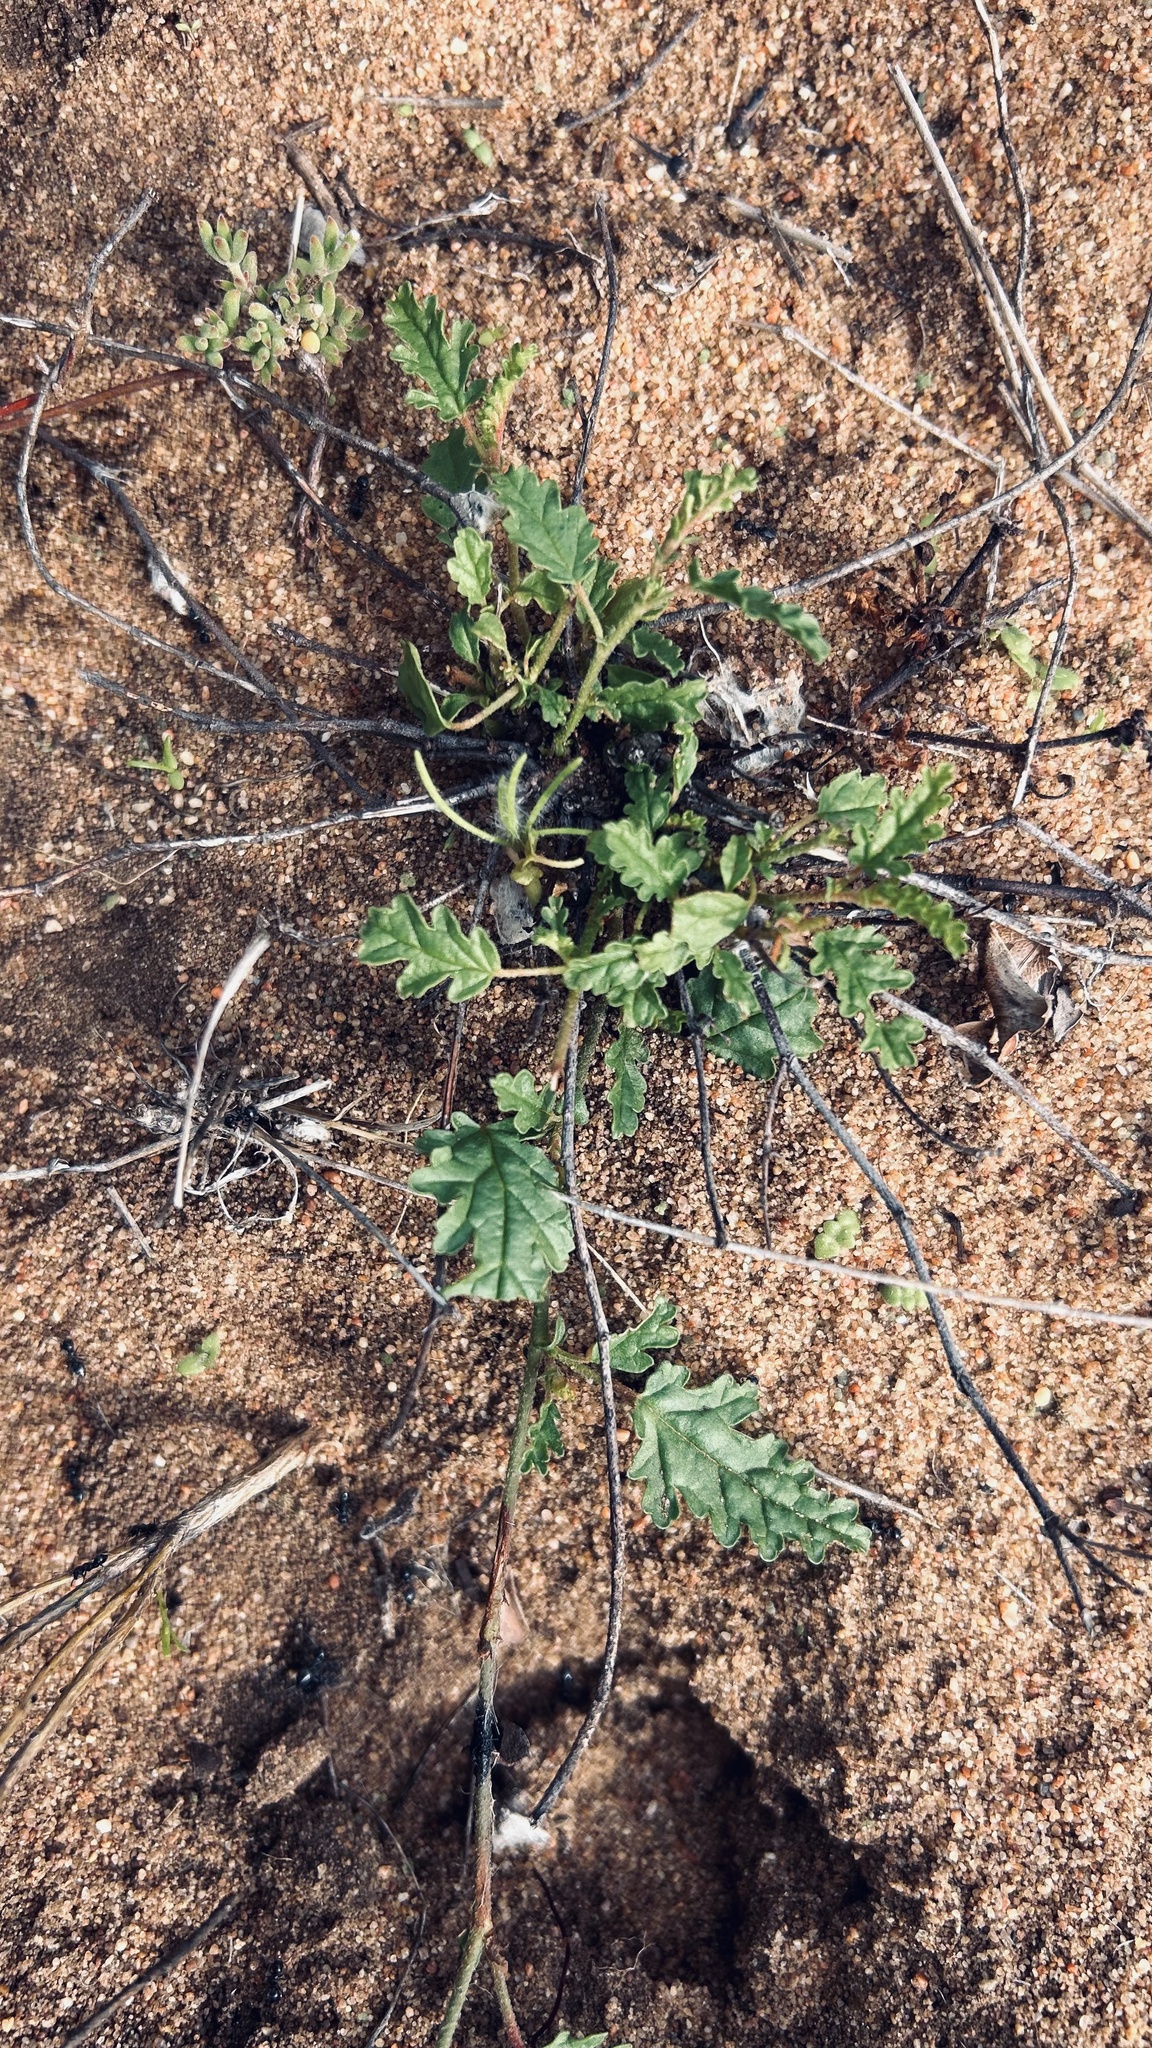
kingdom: Plantae
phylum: Tracheophyta
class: Magnoliopsida
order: Malvales
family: Malvaceae
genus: Hermannia
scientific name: Hermannia althaeifolia
